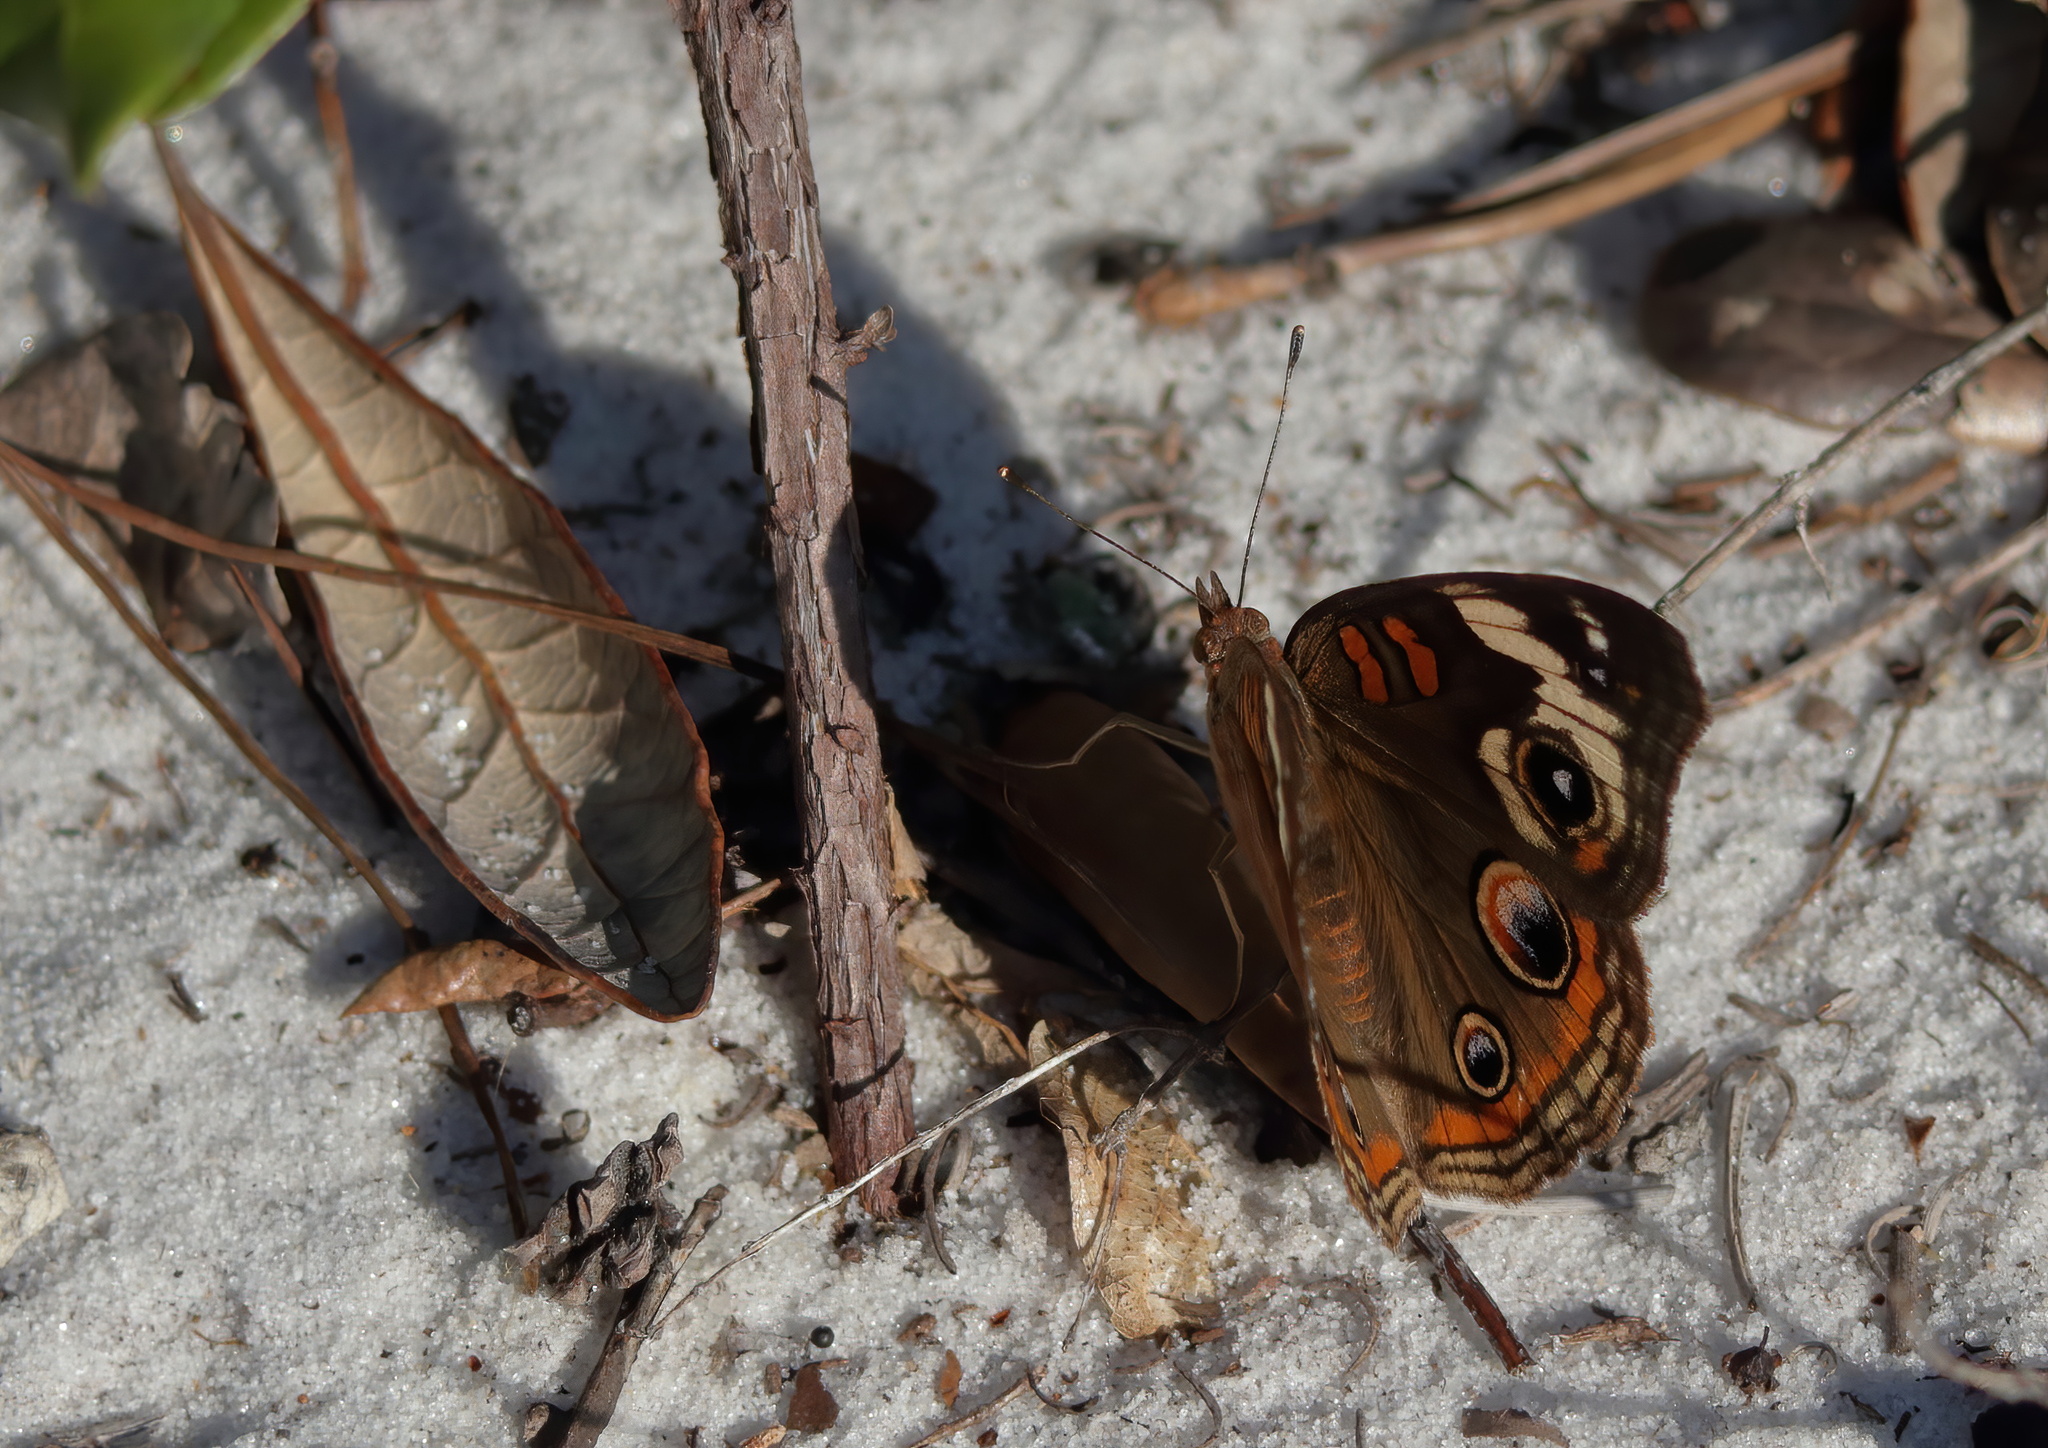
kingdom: Animalia
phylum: Arthropoda
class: Insecta
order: Lepidoptera
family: Nymphalidae
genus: Junonia
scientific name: Junonia coenia
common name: Common buckeye
